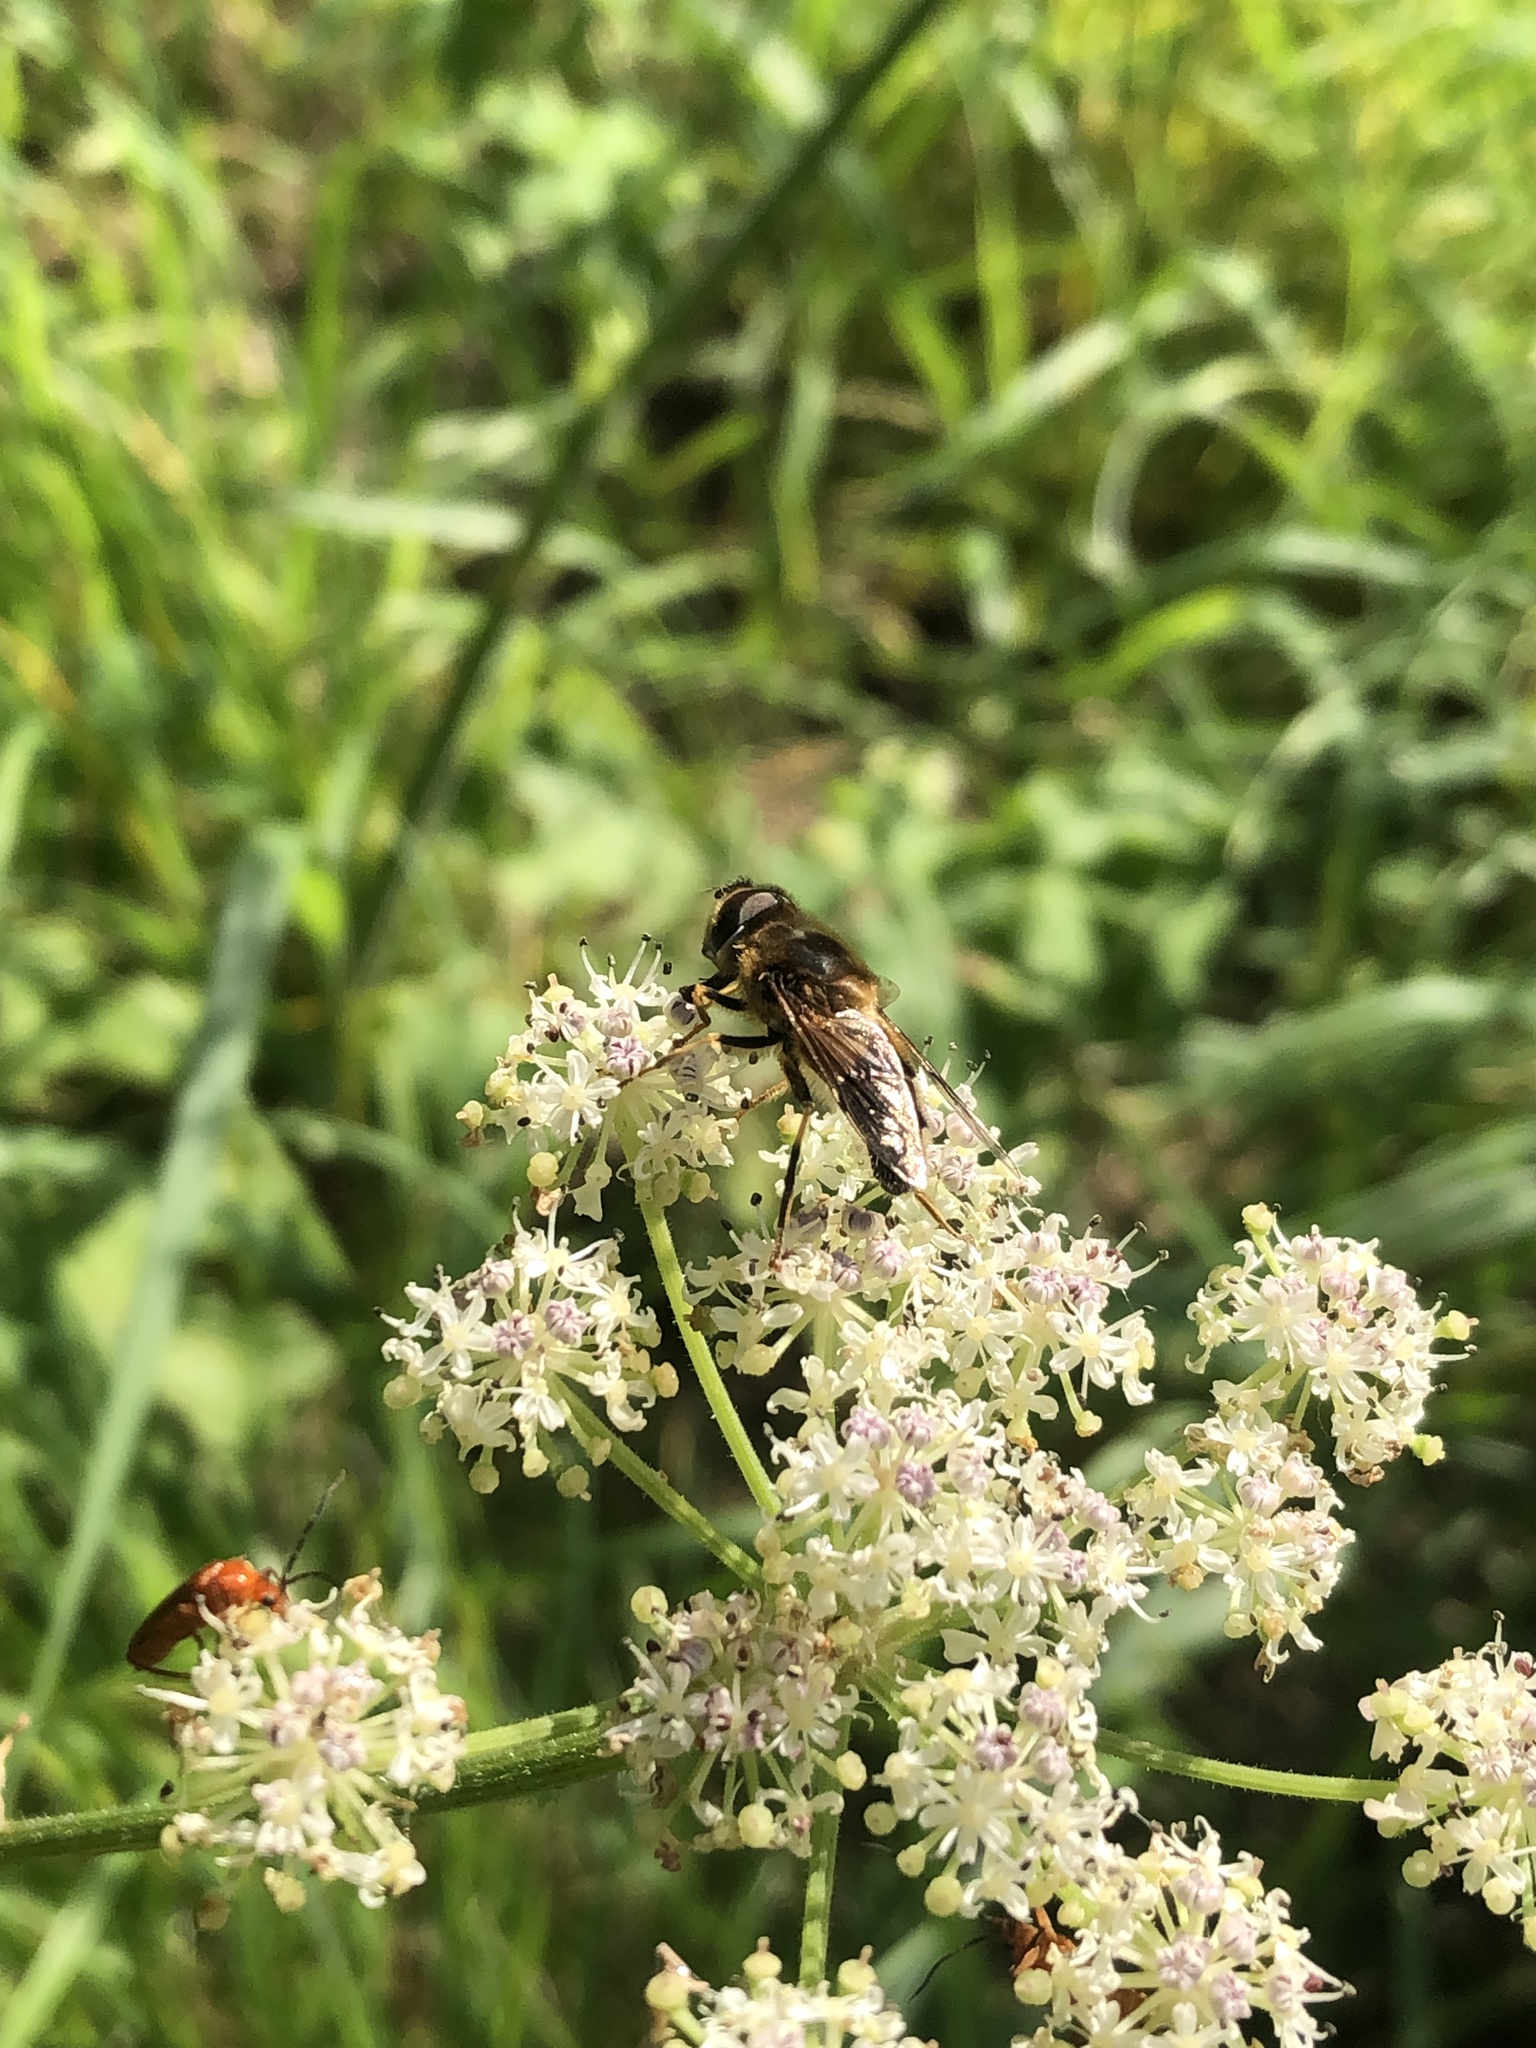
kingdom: Animalia
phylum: Arthropoda
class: Insecta
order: Diptera
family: Syrphidae
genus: Eristalis
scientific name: Eristalis pertinax
